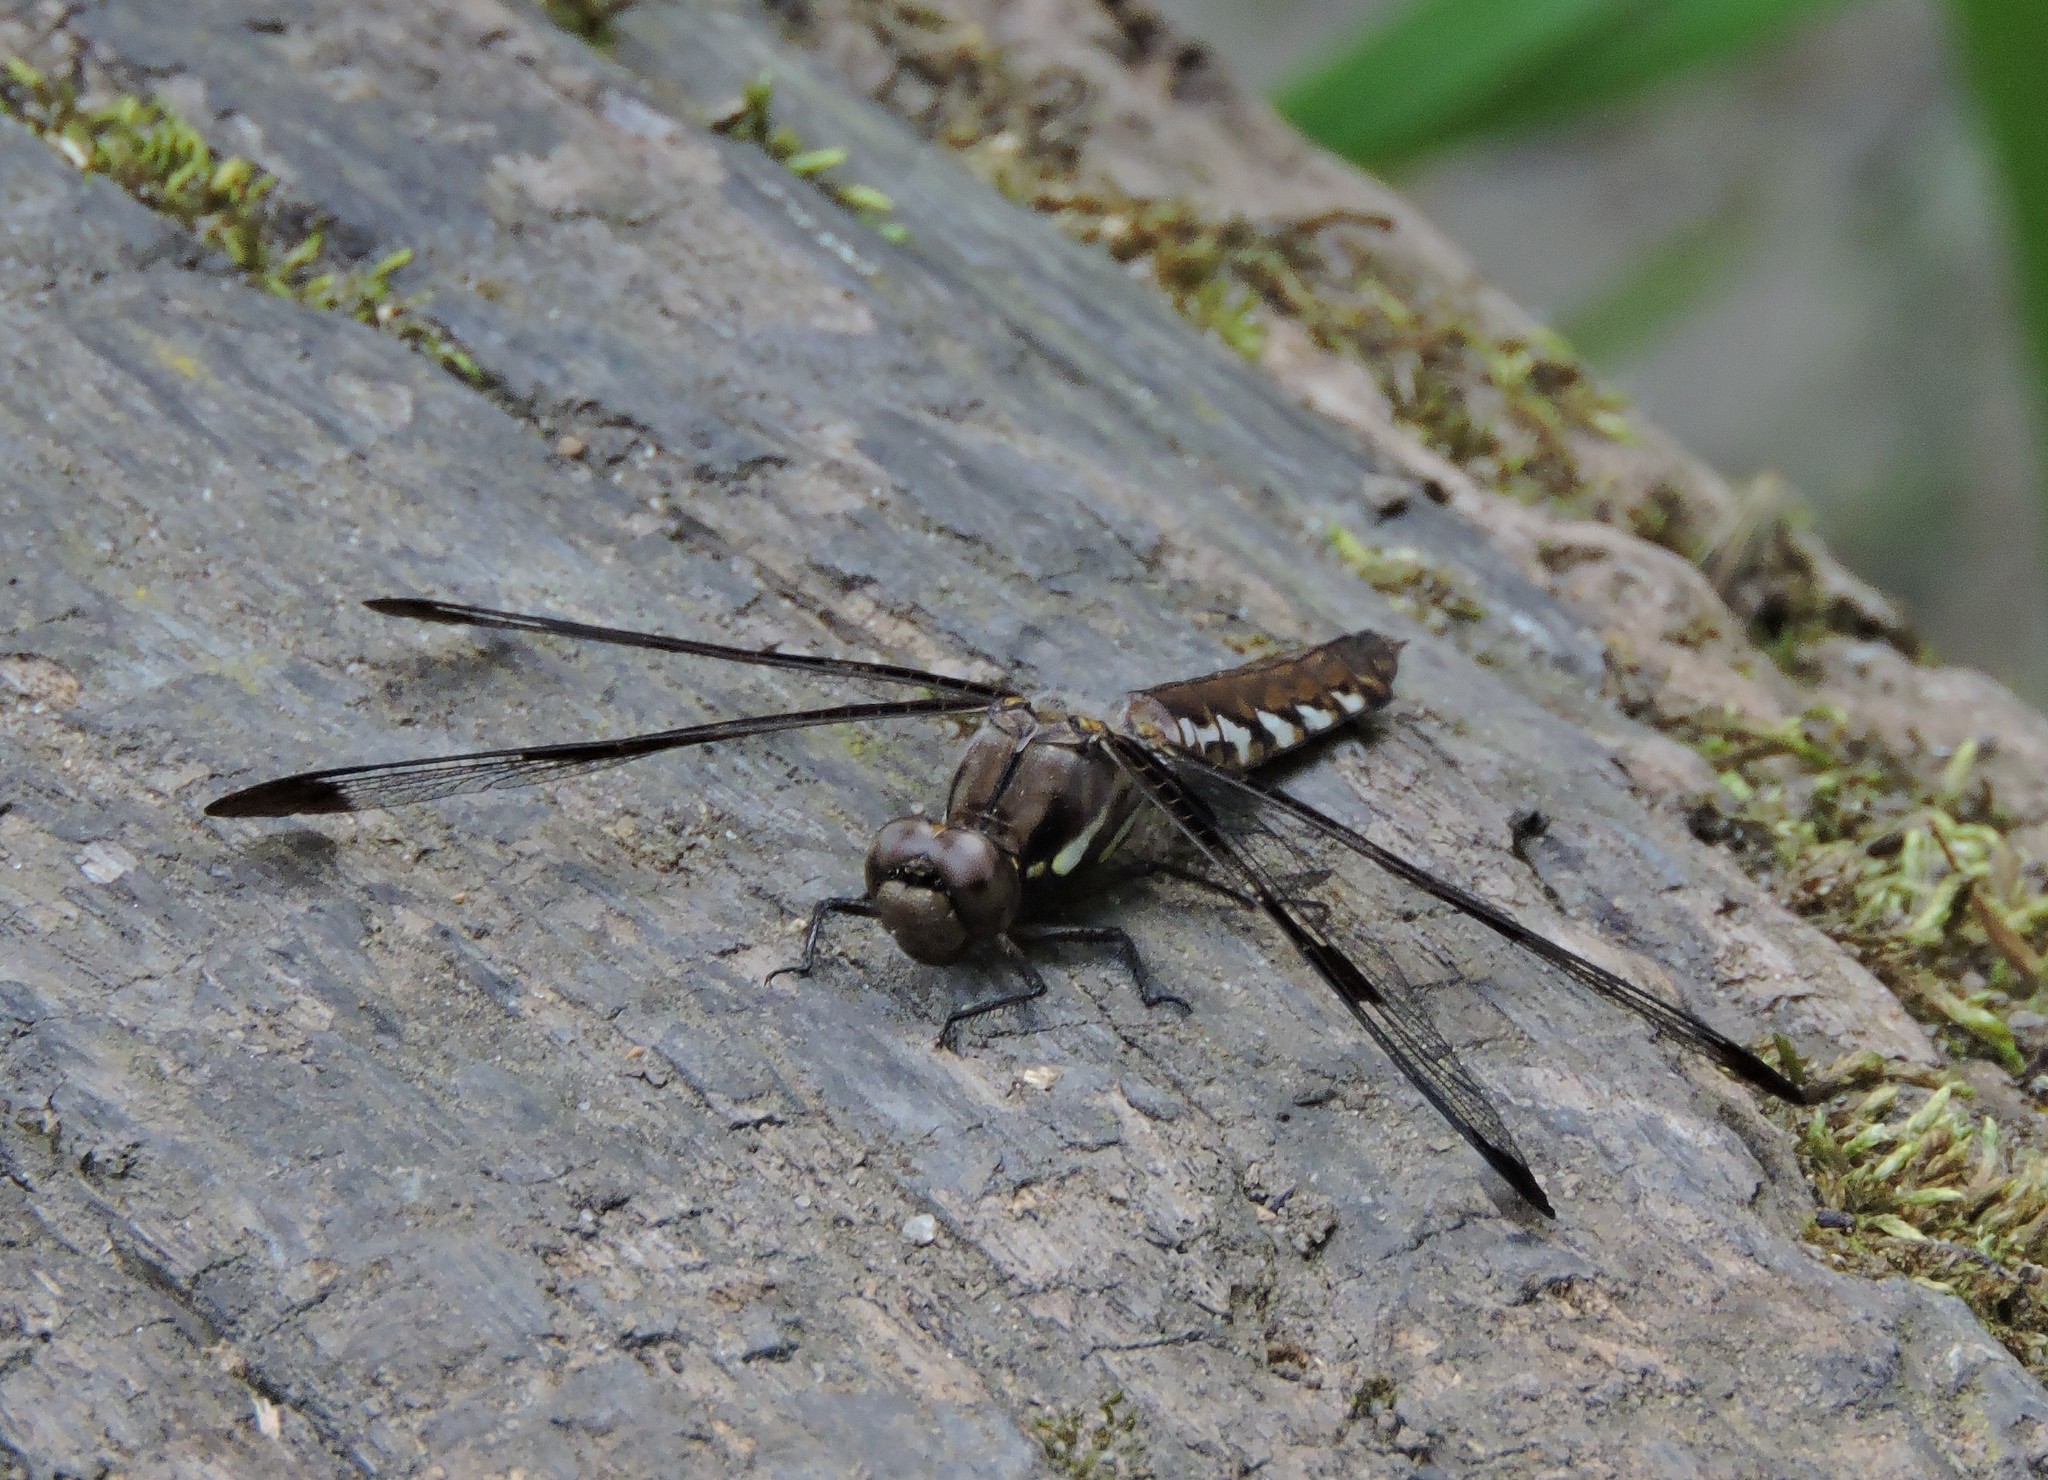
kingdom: Animalia
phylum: Arthropoda
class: Insecta
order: Odonata
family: Libellulidae
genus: Plathemis
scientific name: Plathemis lydia
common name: Common whitetail
